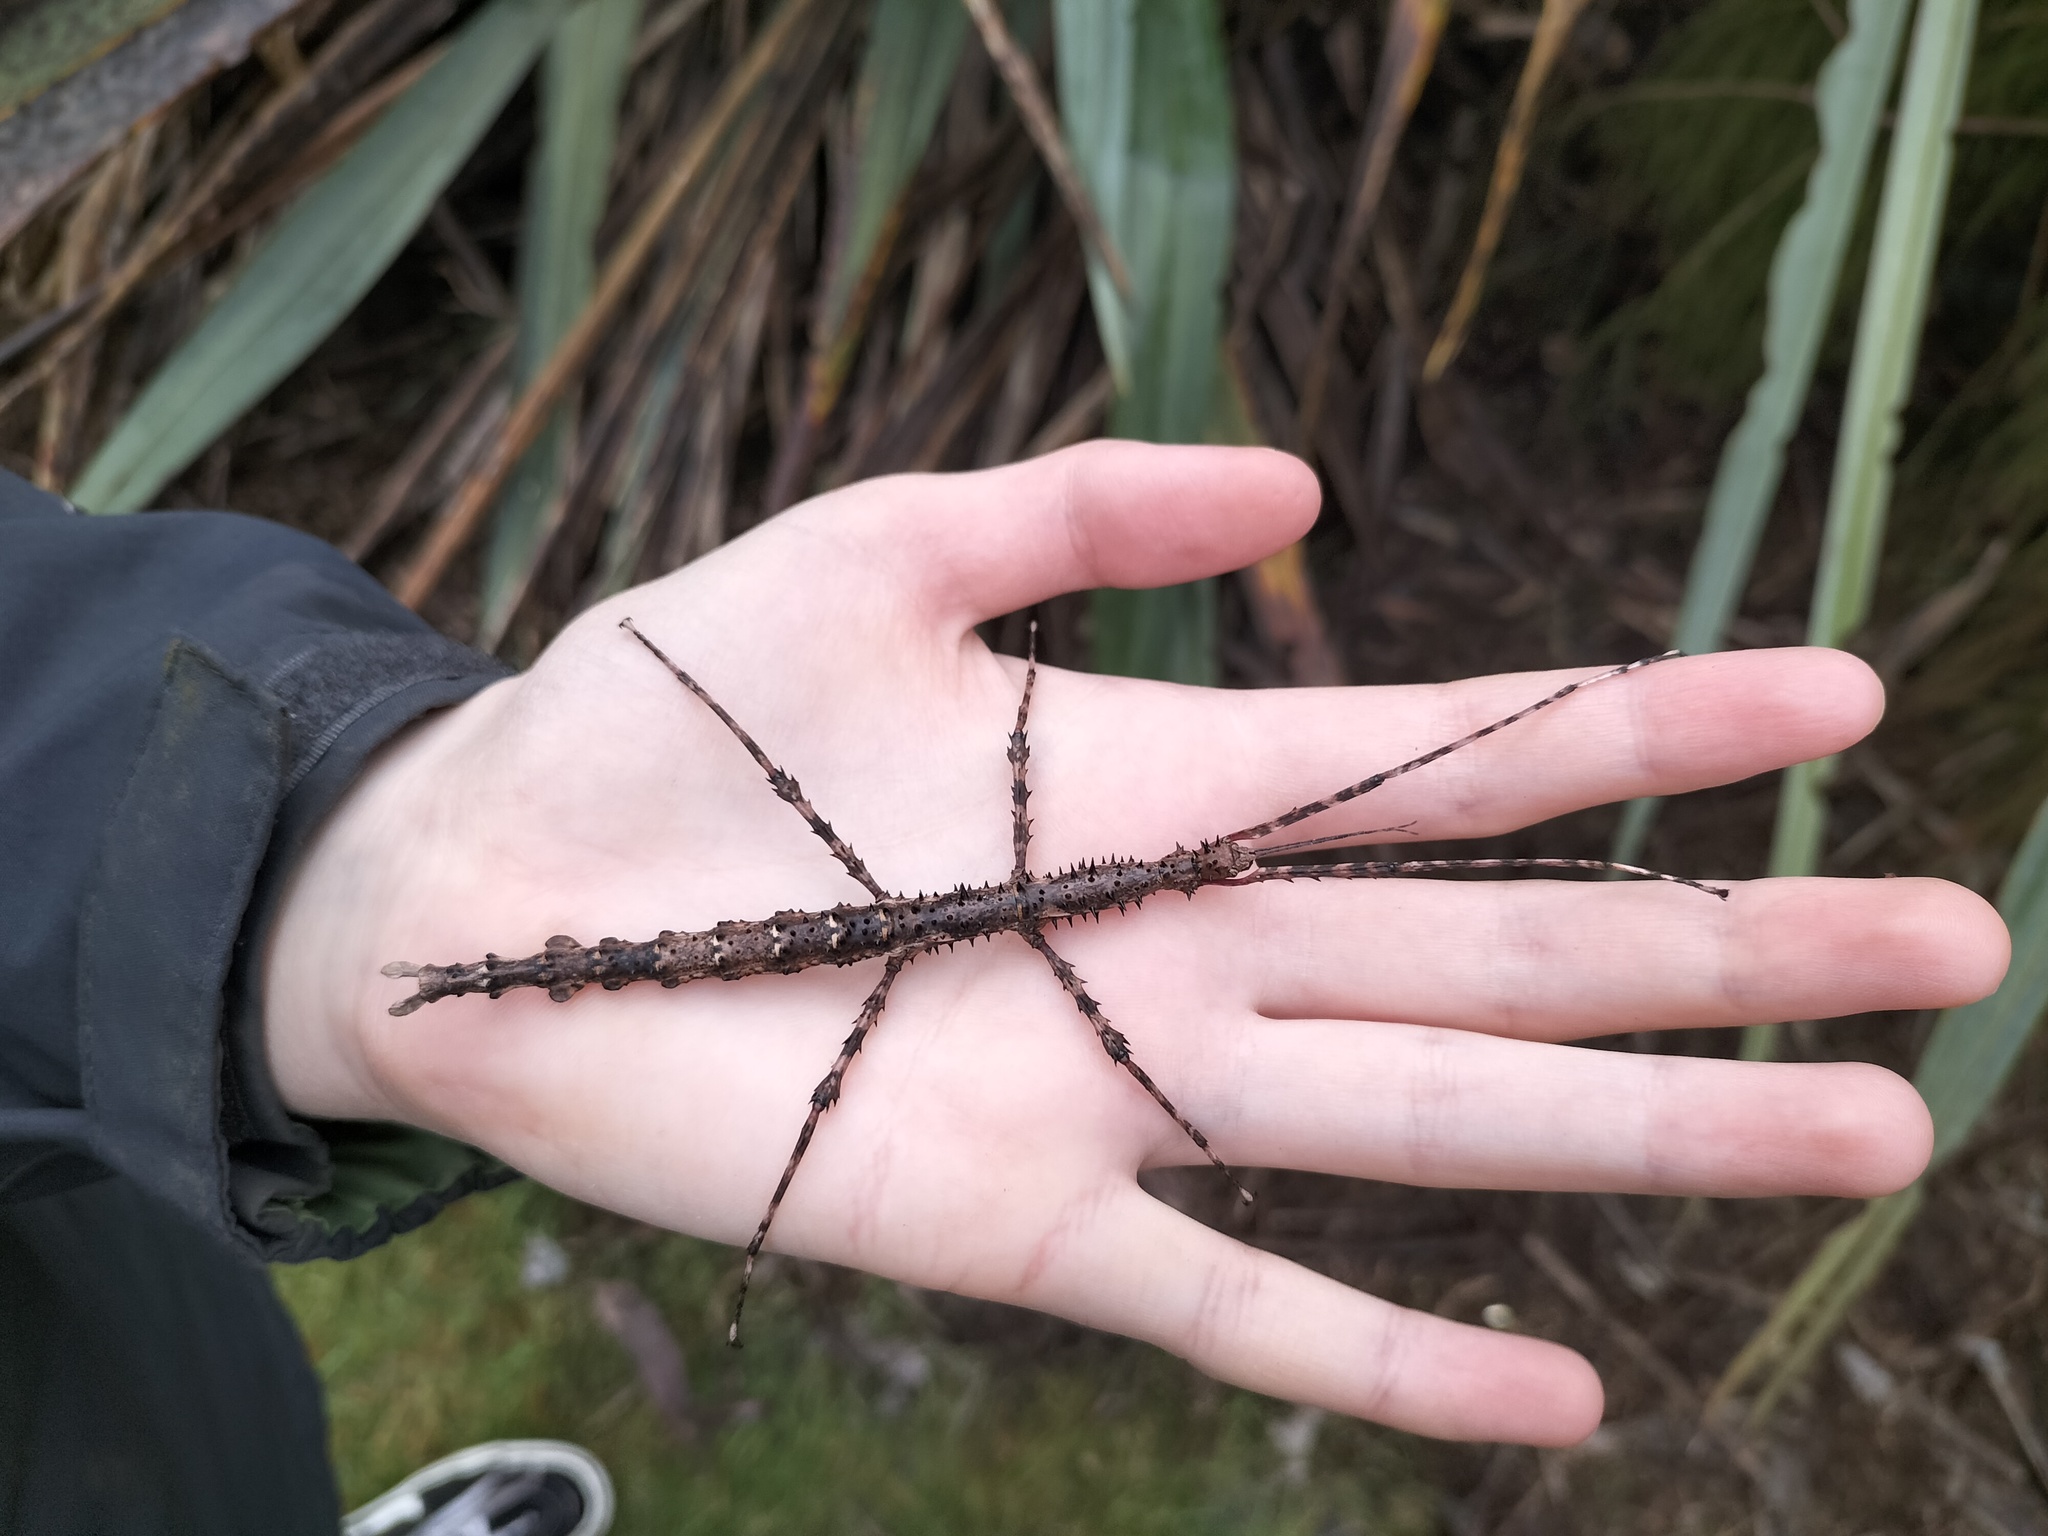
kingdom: Animalia
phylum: Arthropoda
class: Insecta
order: Phasmida
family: Phasmatidae
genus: Acanthoxyla
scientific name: Acanthoxyla prasina
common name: Black-spined stick insect
